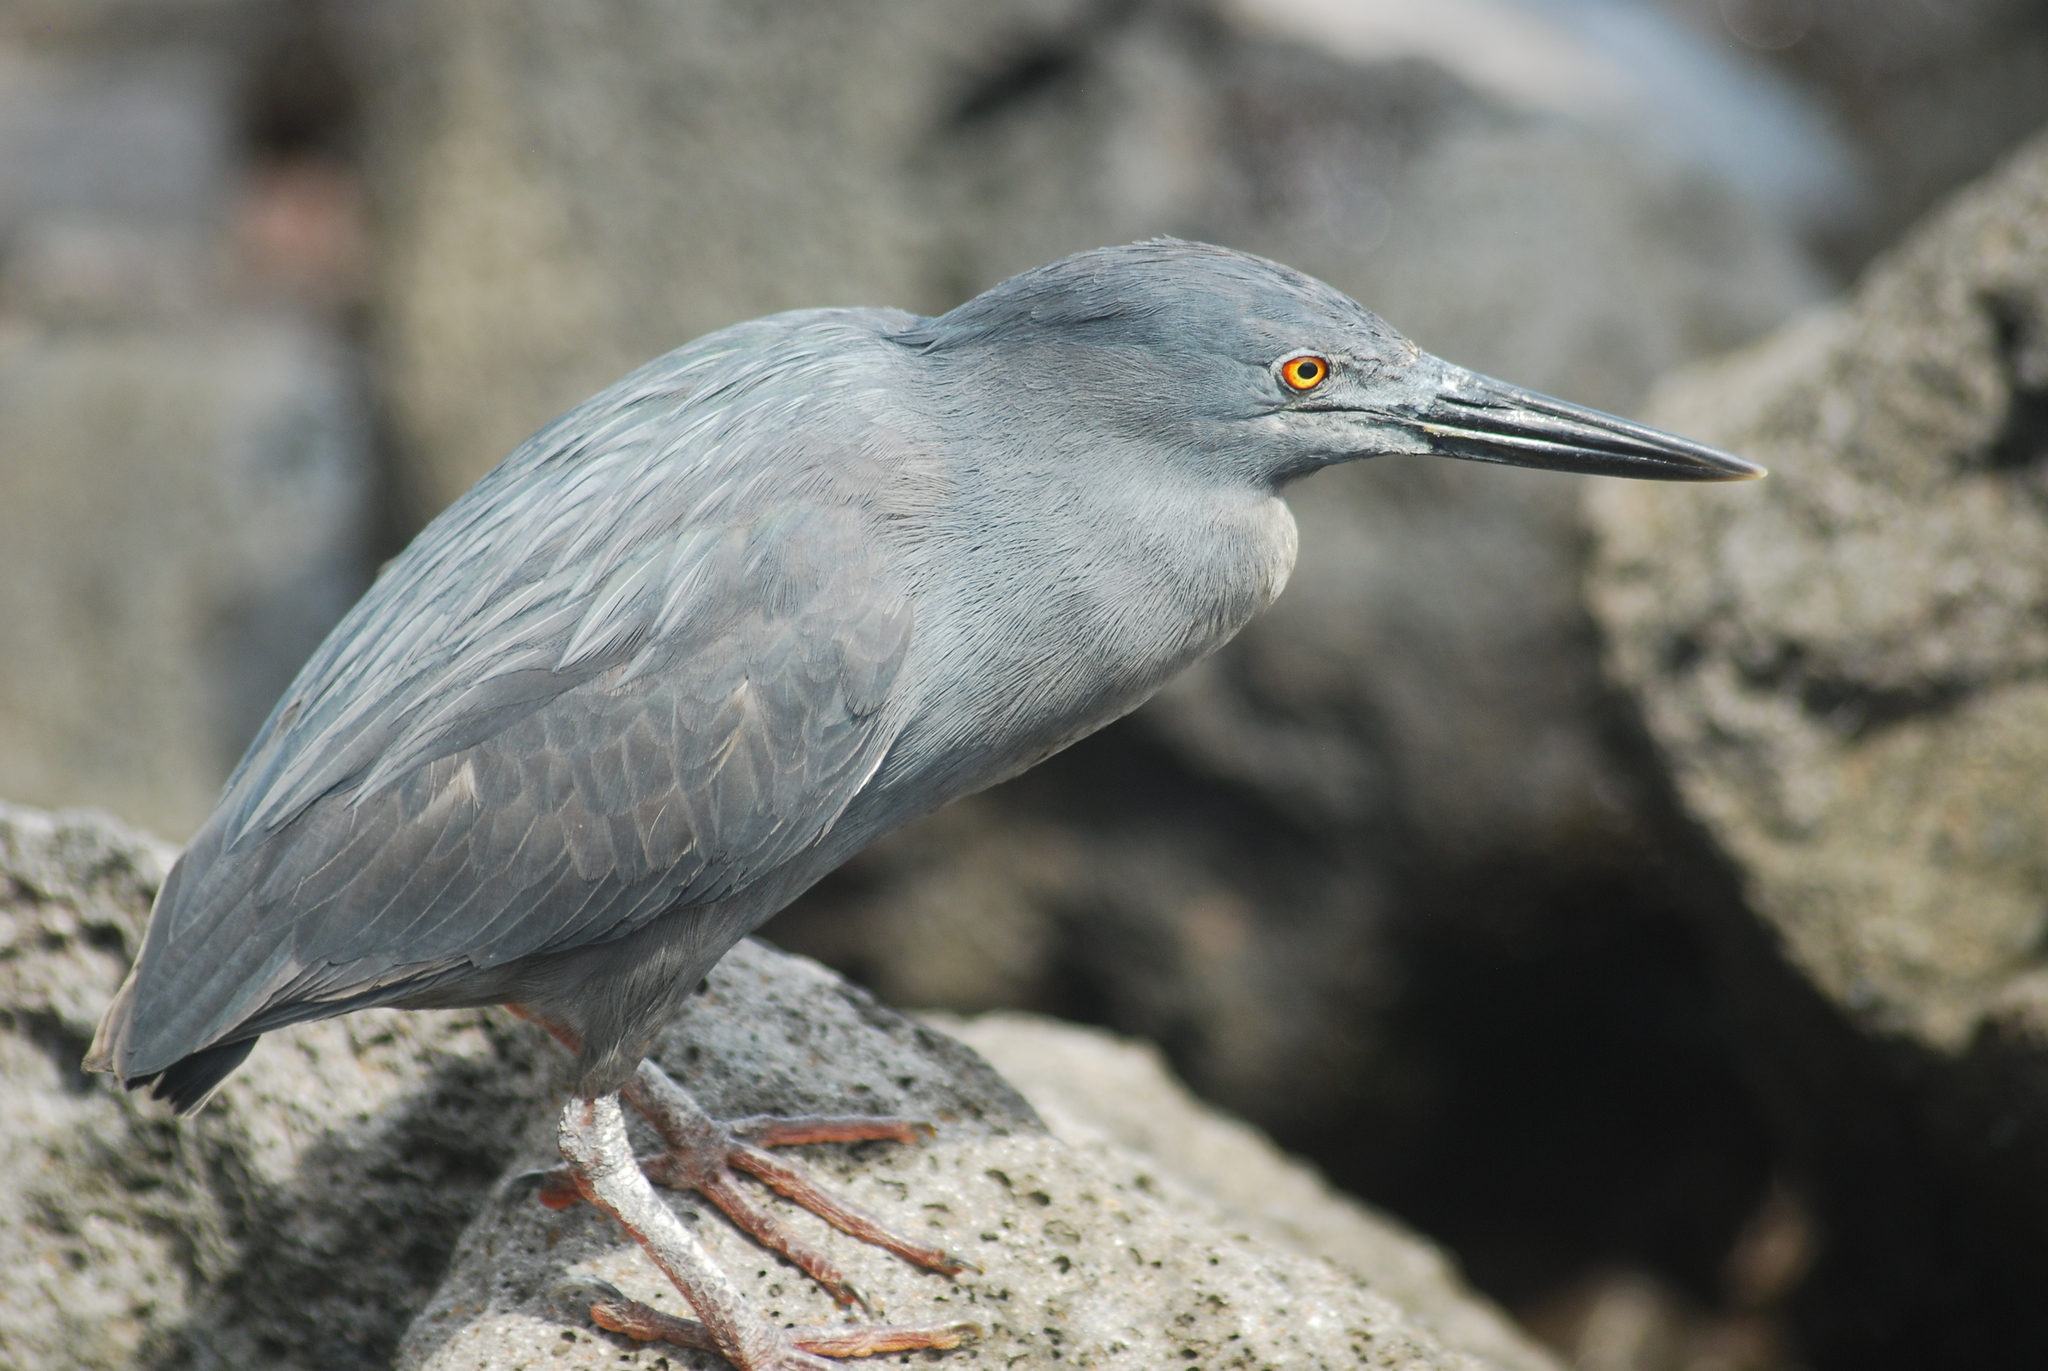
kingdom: Animalia
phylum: Chordata
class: Aves
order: Pelecaniformes
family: Ardeidae
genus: Butorides
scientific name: Butorides striata
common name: Striated heron
